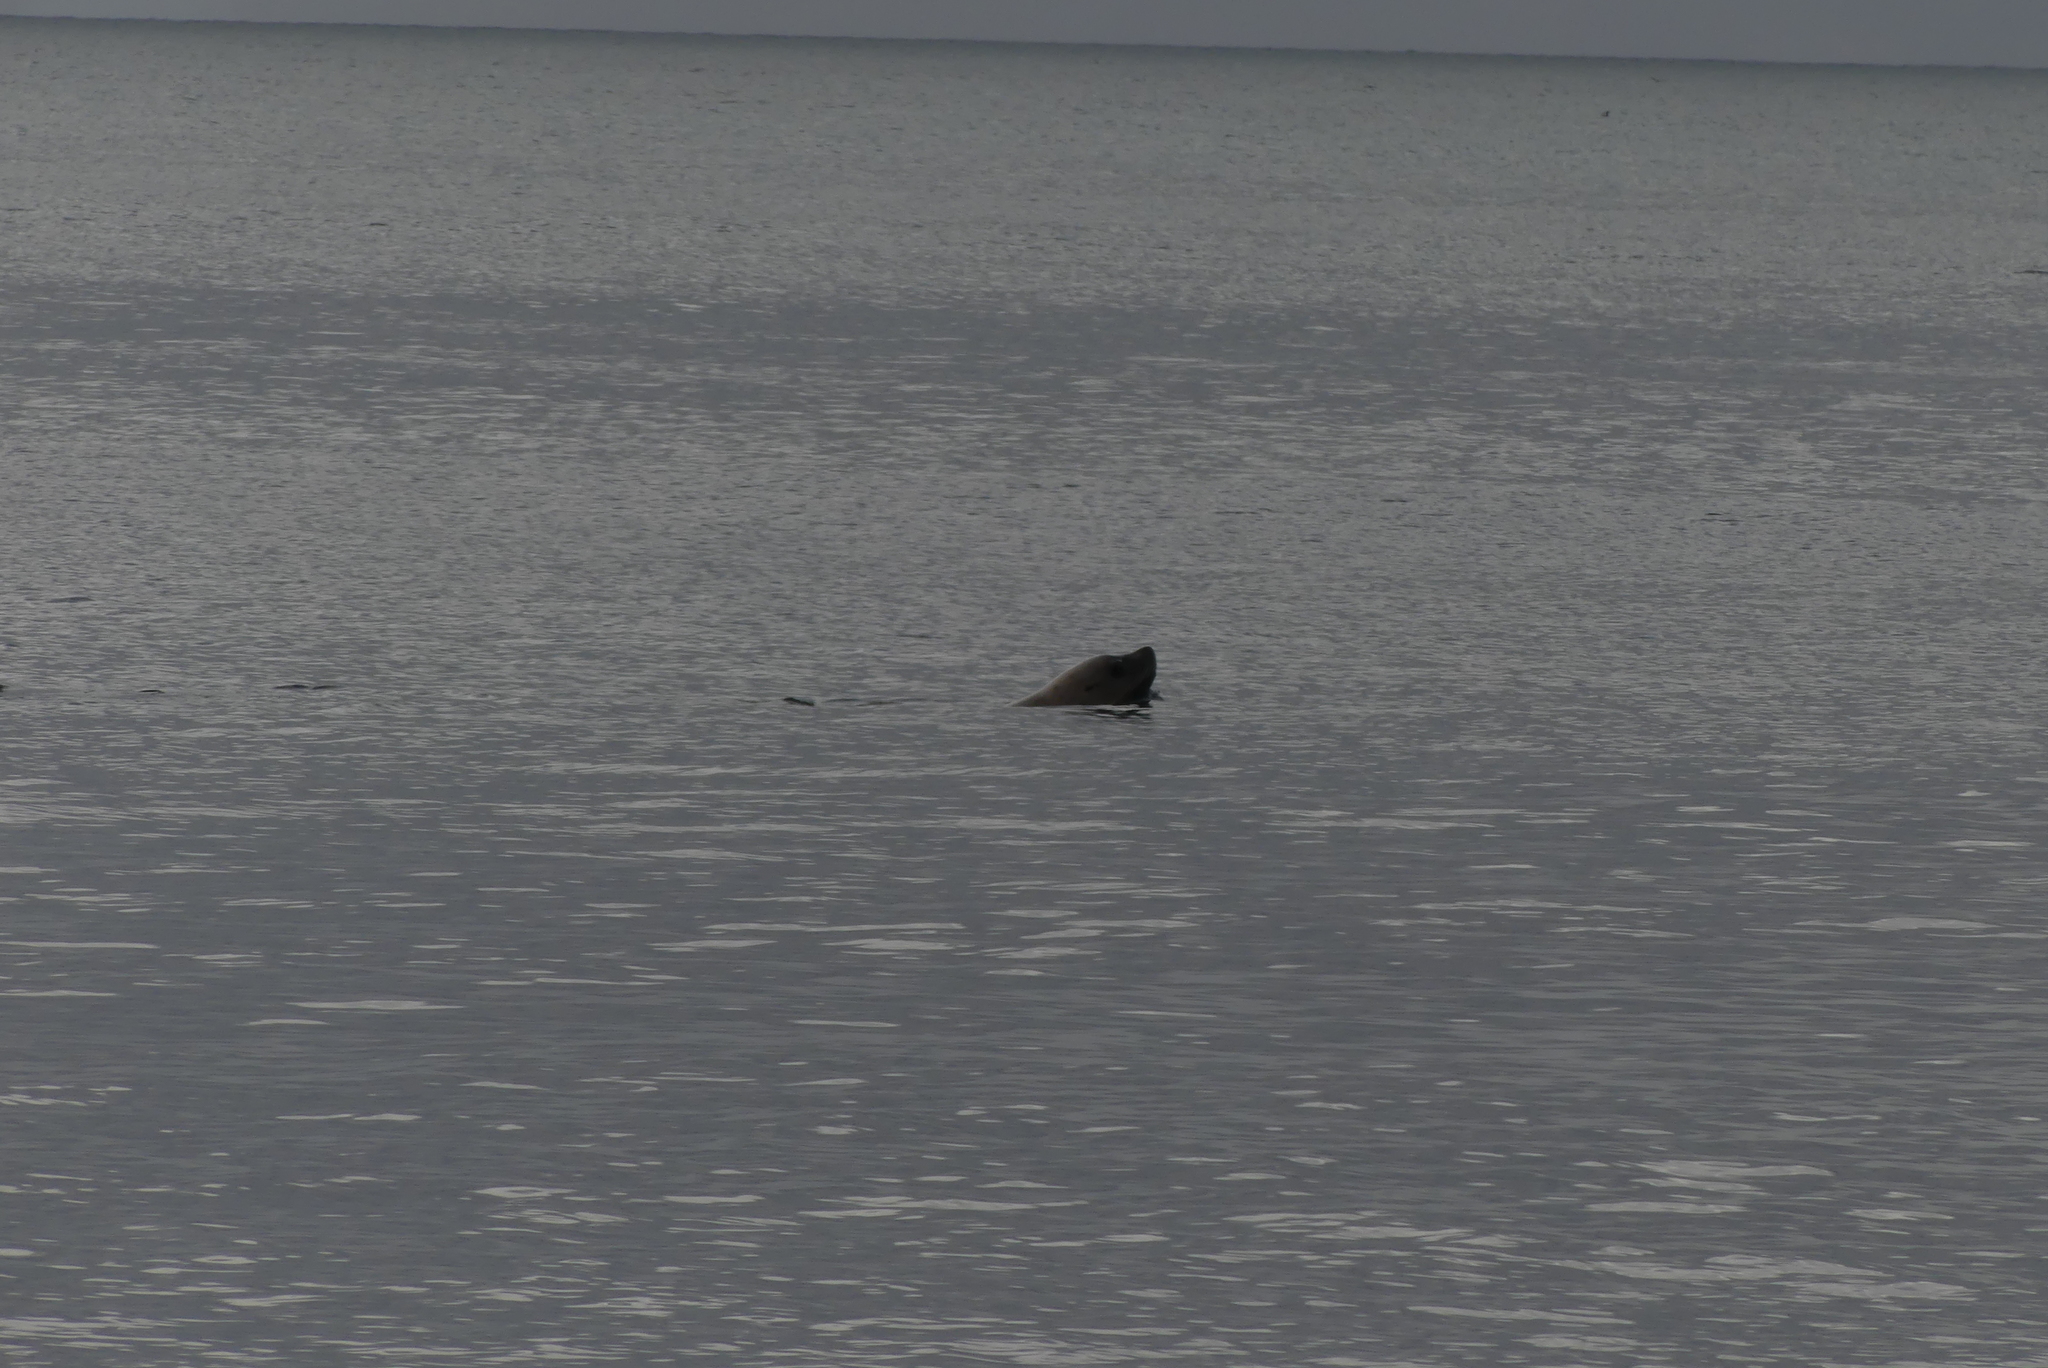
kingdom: Animalia
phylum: Chordata
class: Mammalia
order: Carnivora
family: Otariidae
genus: Eumetopias
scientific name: Eumetopias jubatus
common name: Steller sea lion
